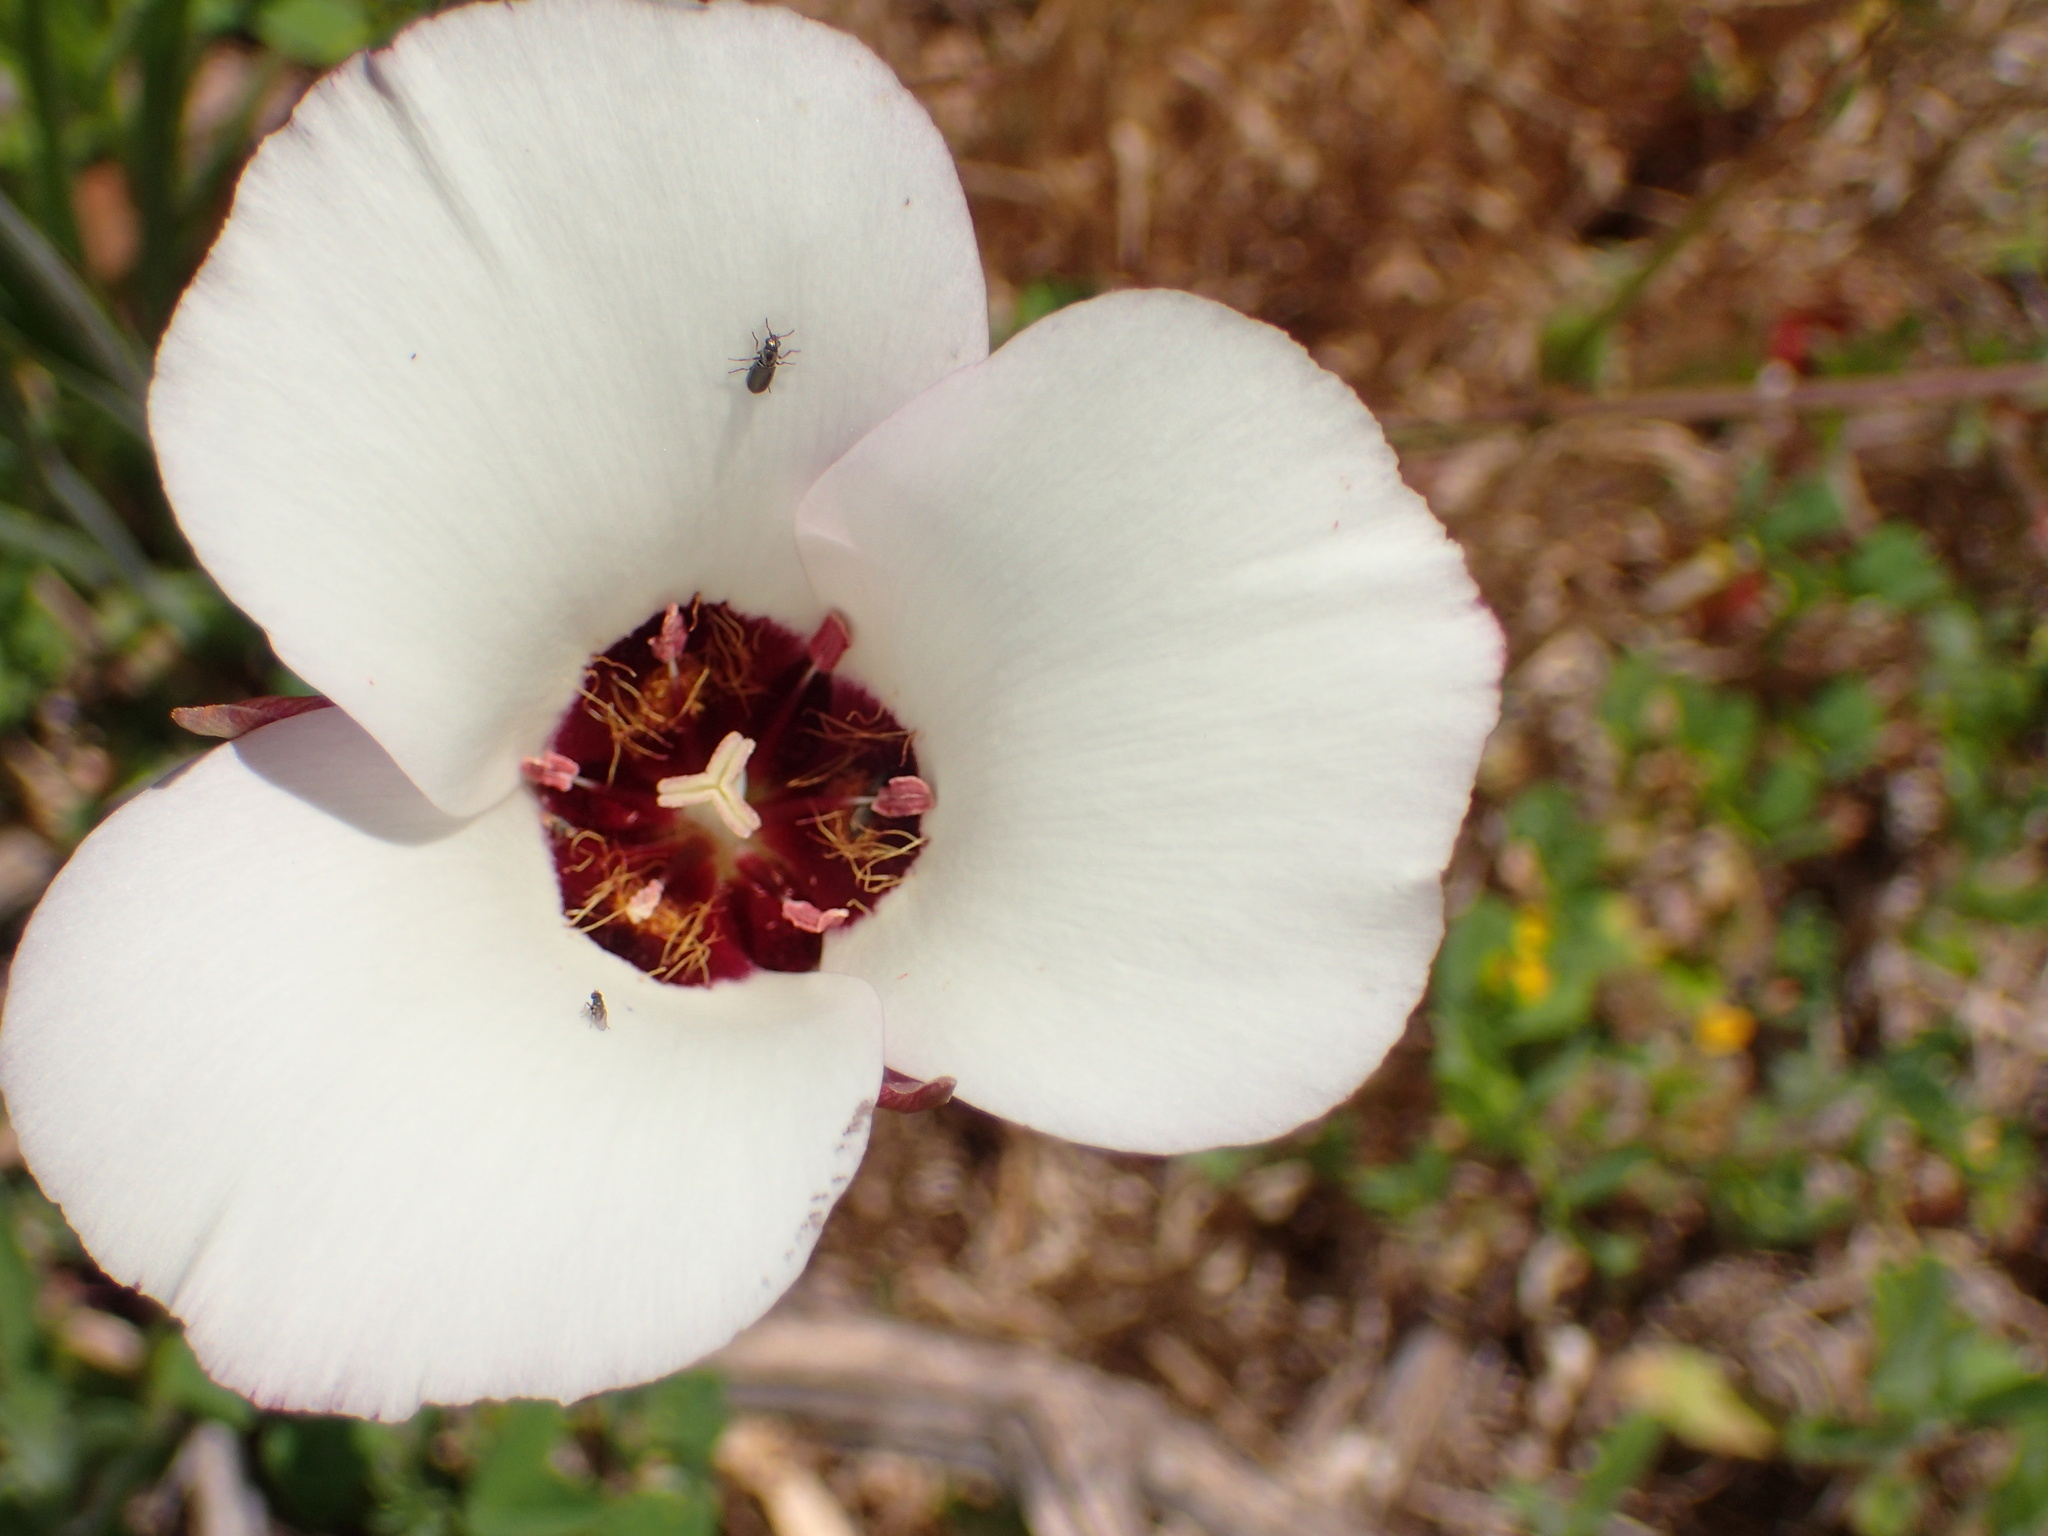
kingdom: Plantae
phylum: Tracheophyta
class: Liliopsida
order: Liliales
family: Liliaceae
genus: Calochortus
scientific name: Calochortus catalinae
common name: Catalina mariposa-lily
